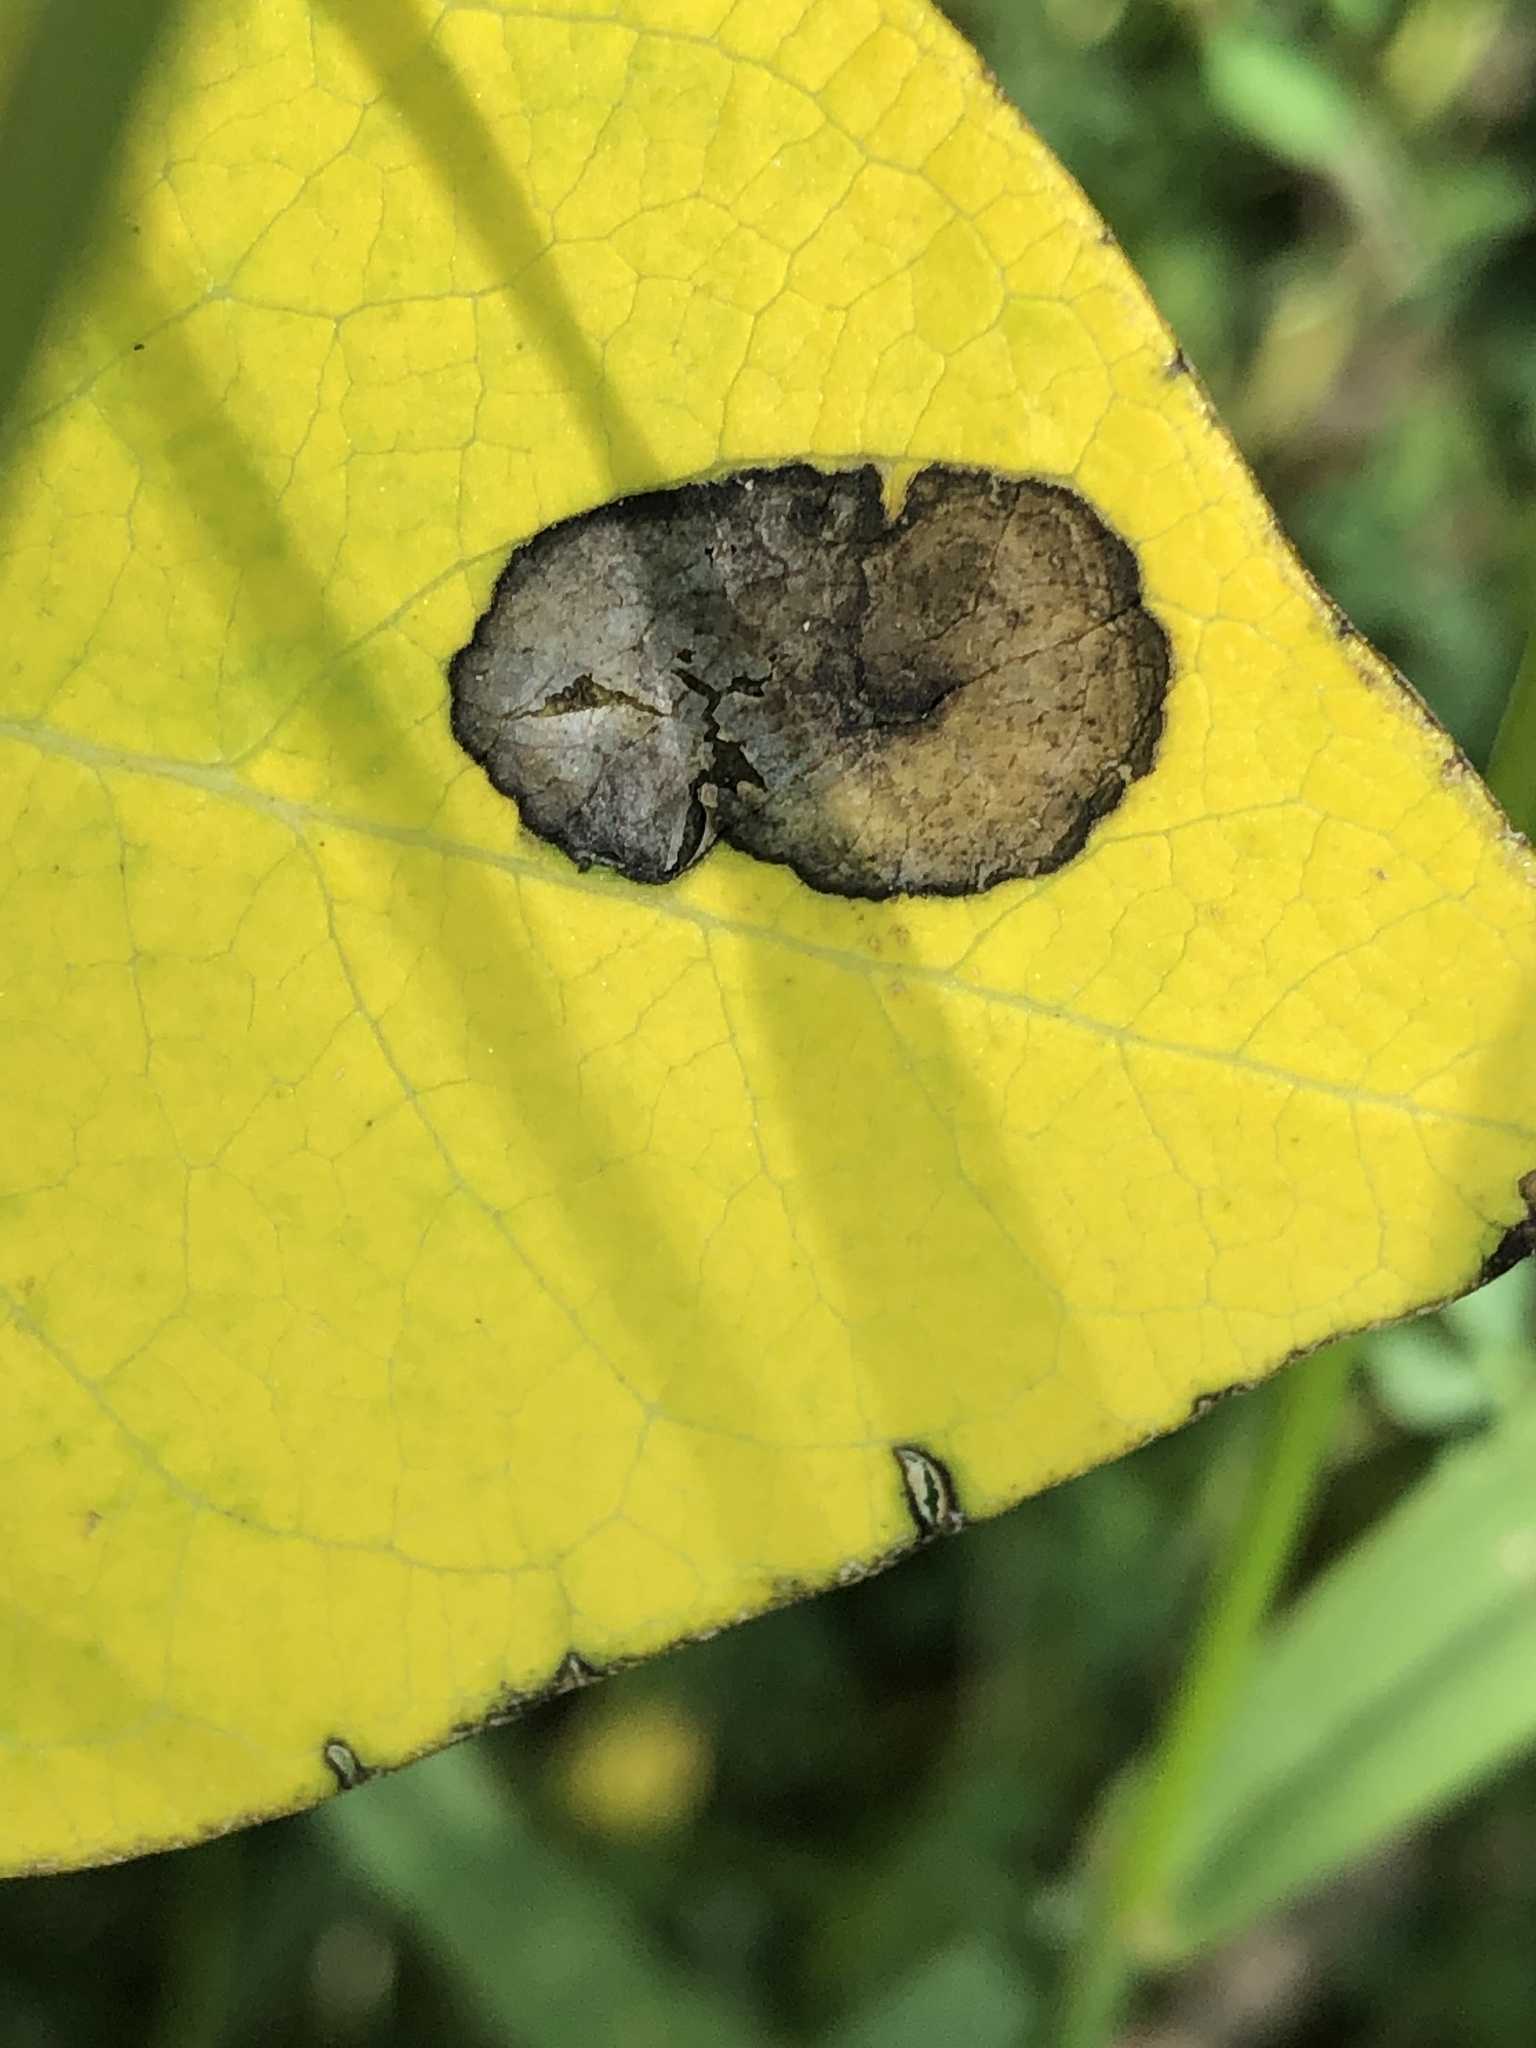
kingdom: Animalia
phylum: Arthropoda
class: Insecta
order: Diptera
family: Agromyzidae
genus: Liriomyza
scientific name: Liriomyza asclepiadis
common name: Milkweed leaf-miner fly
